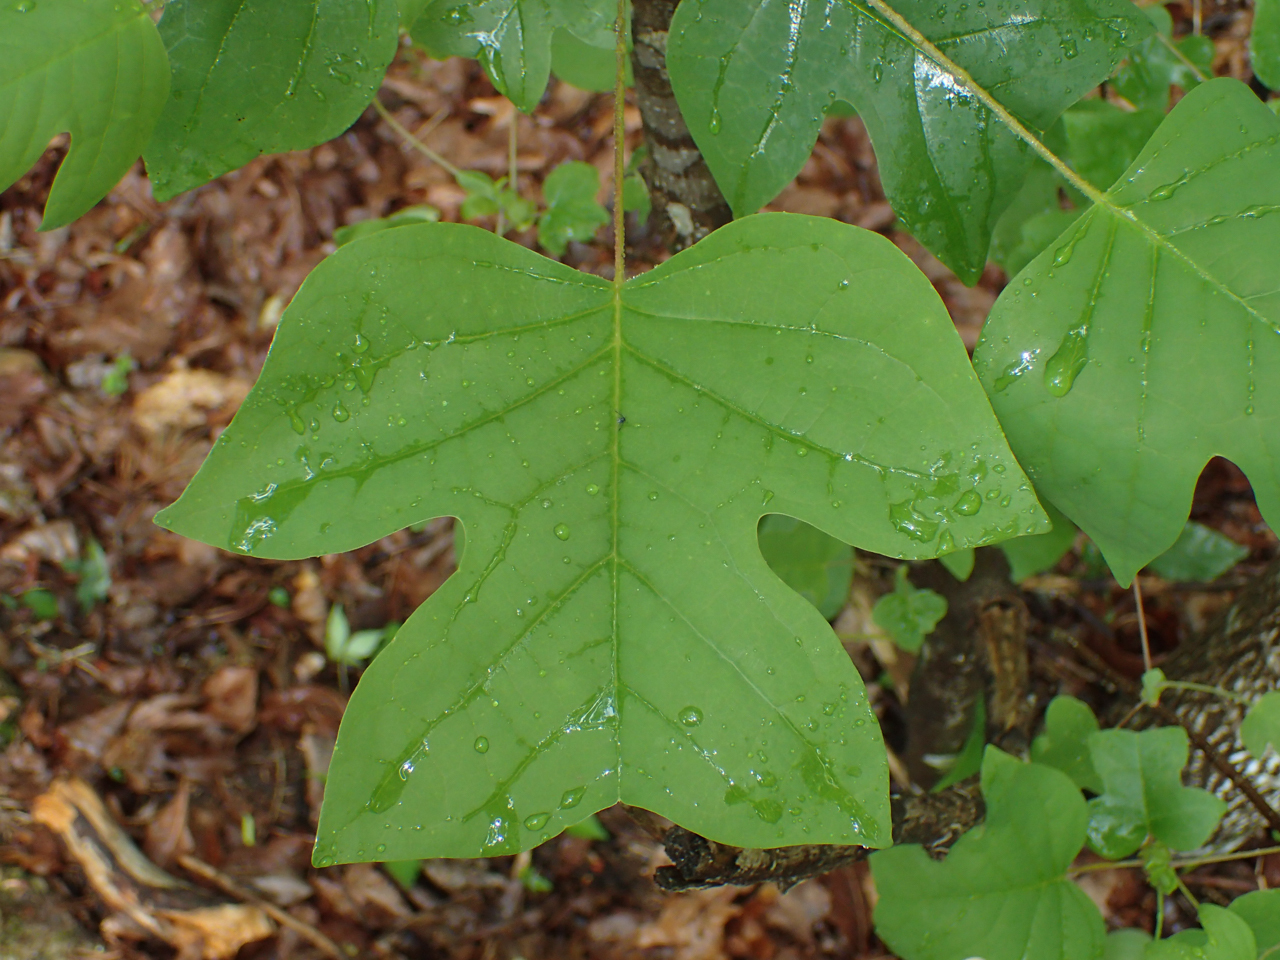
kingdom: Plantae
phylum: Tracheophyta
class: Magnoliopsida
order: Magnoliales
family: Magnoliaceae
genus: Liriodendron
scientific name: Liriodendron tulipifera
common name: Tulip tree
